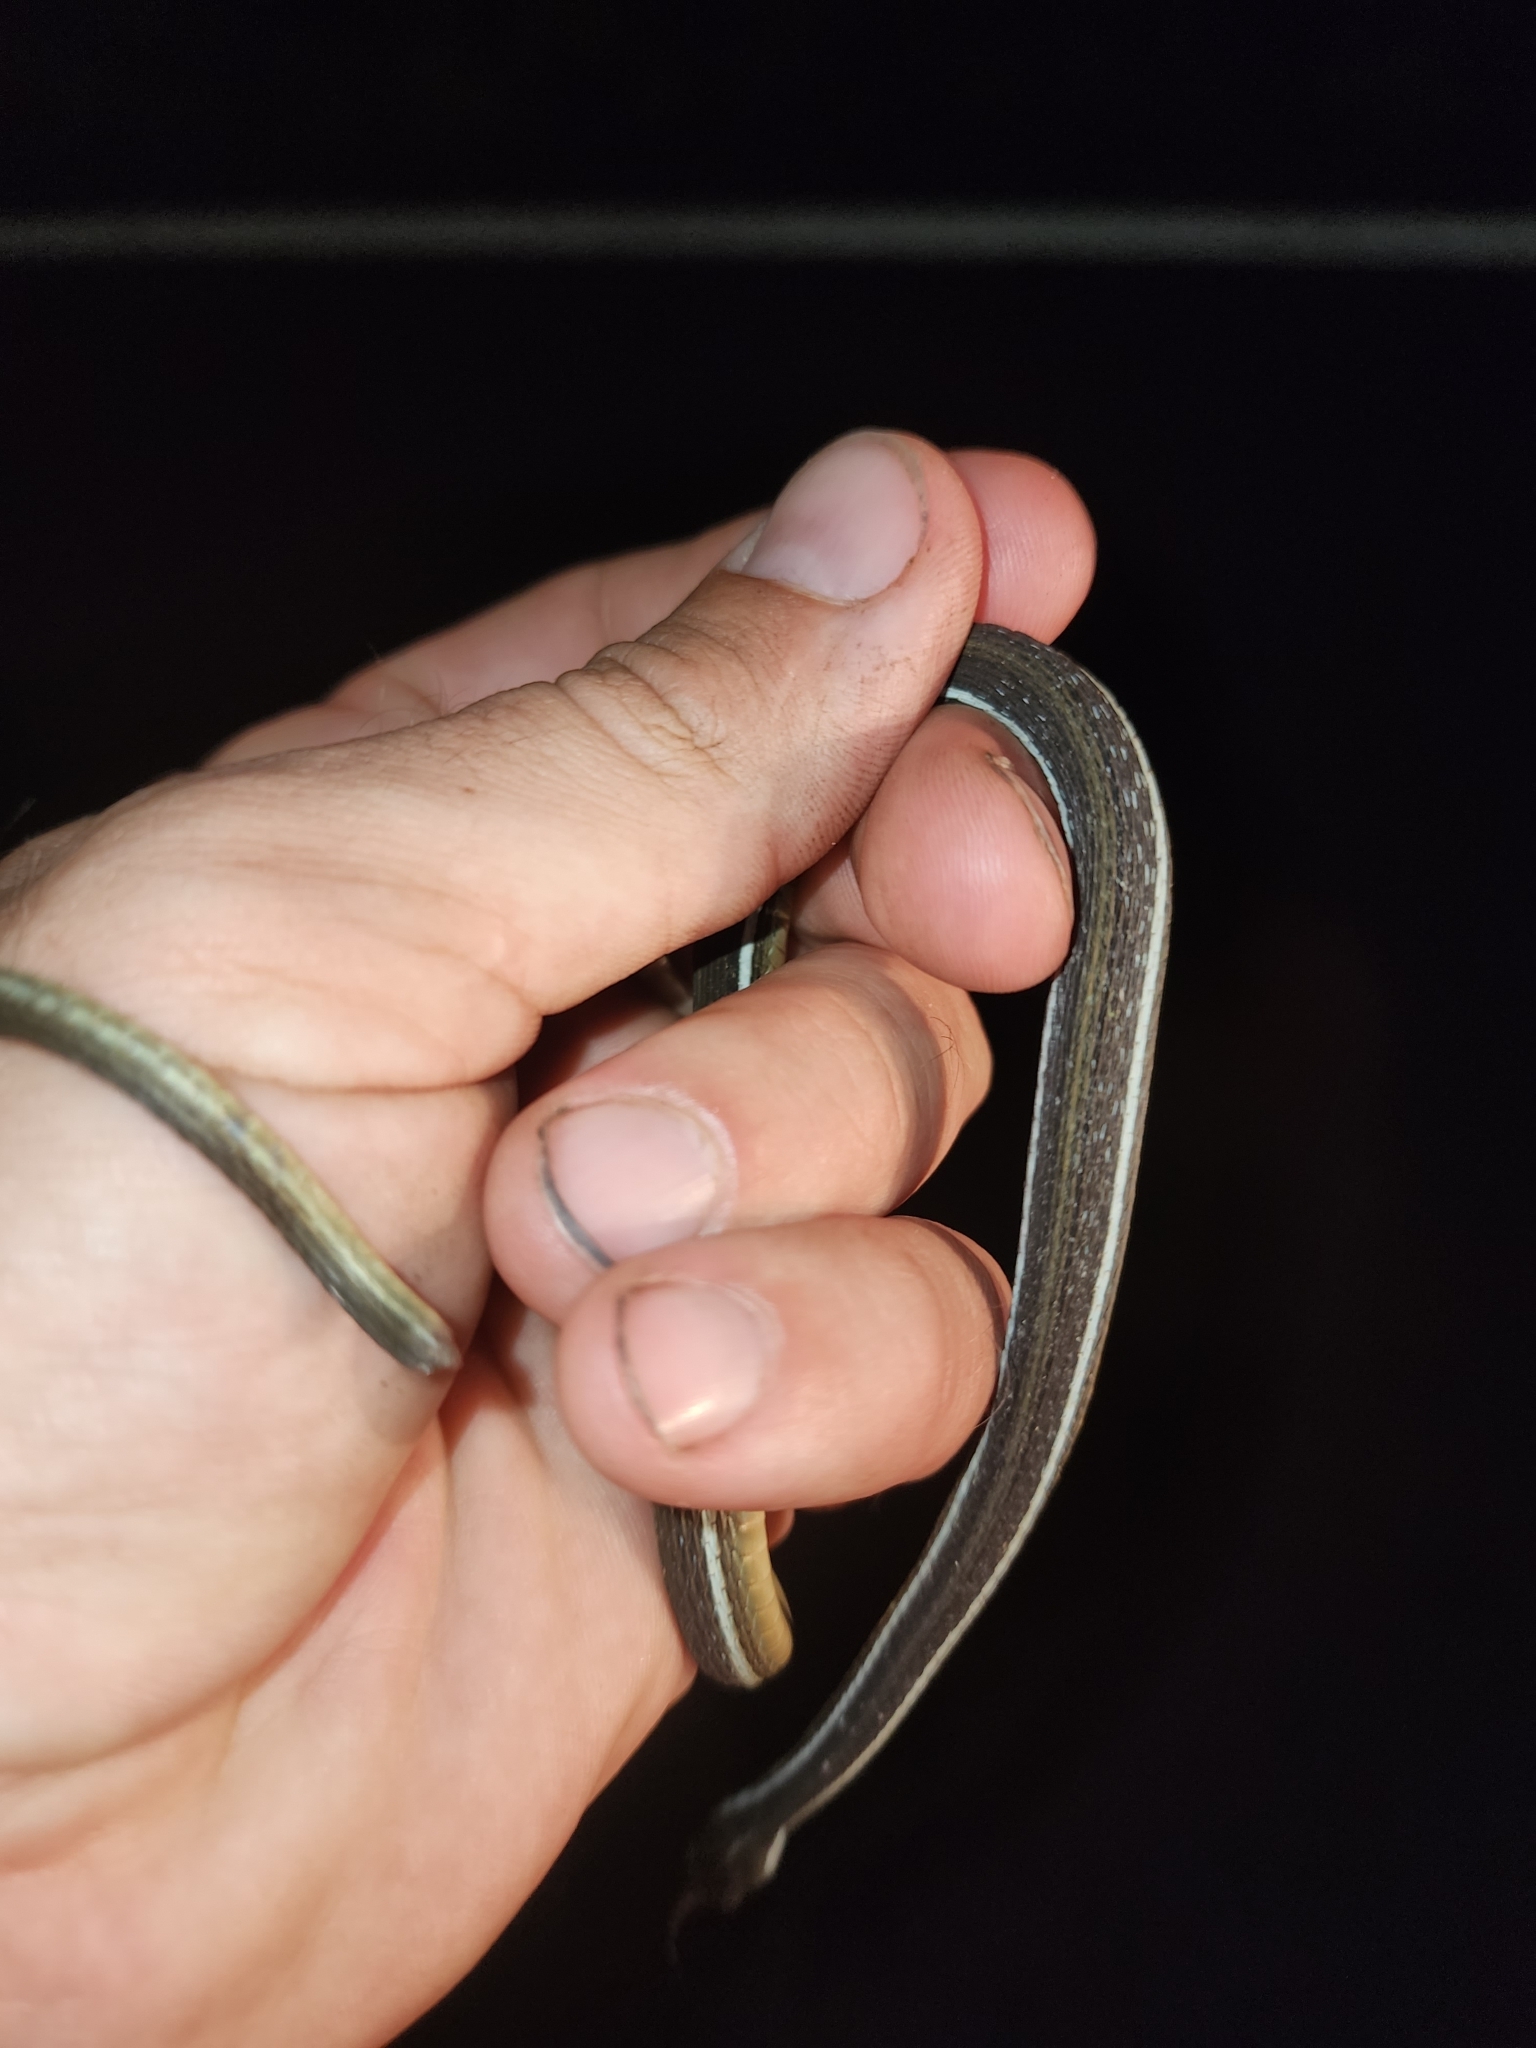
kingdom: Animalia
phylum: Chordata
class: Squamata
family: Colubridae
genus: Thamnophis
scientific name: Thamnophis saurita
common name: Eastern ribbonsnake
